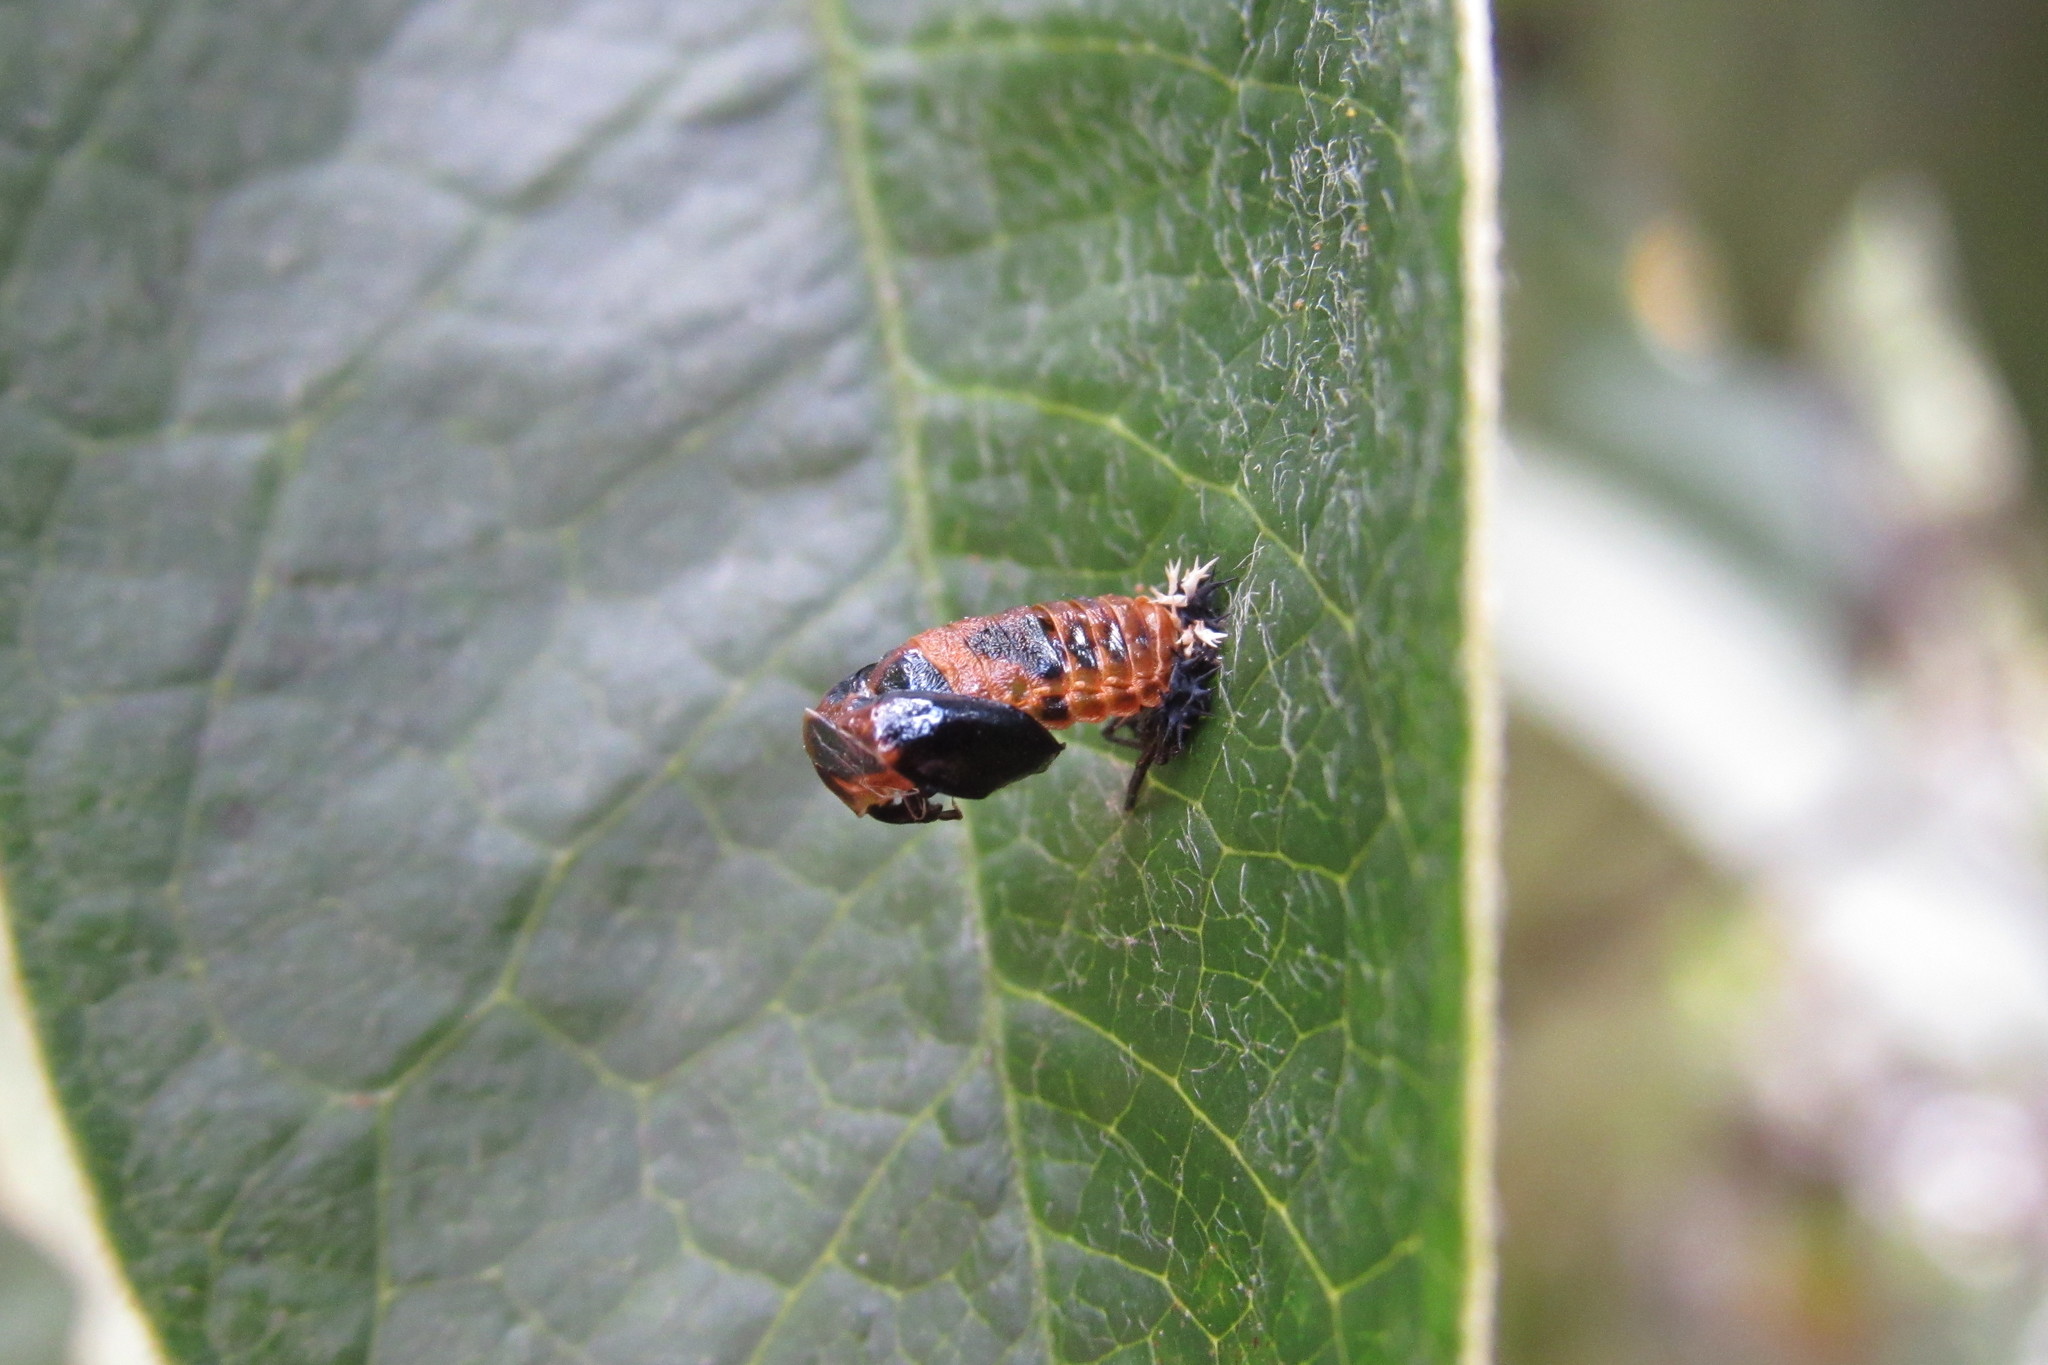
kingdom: Animalia
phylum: Arthropoda
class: Insecta
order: Coleoptera
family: Coccinellidae
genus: Harmonia
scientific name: Harmonia axyridis
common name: Harlequin ladybird
